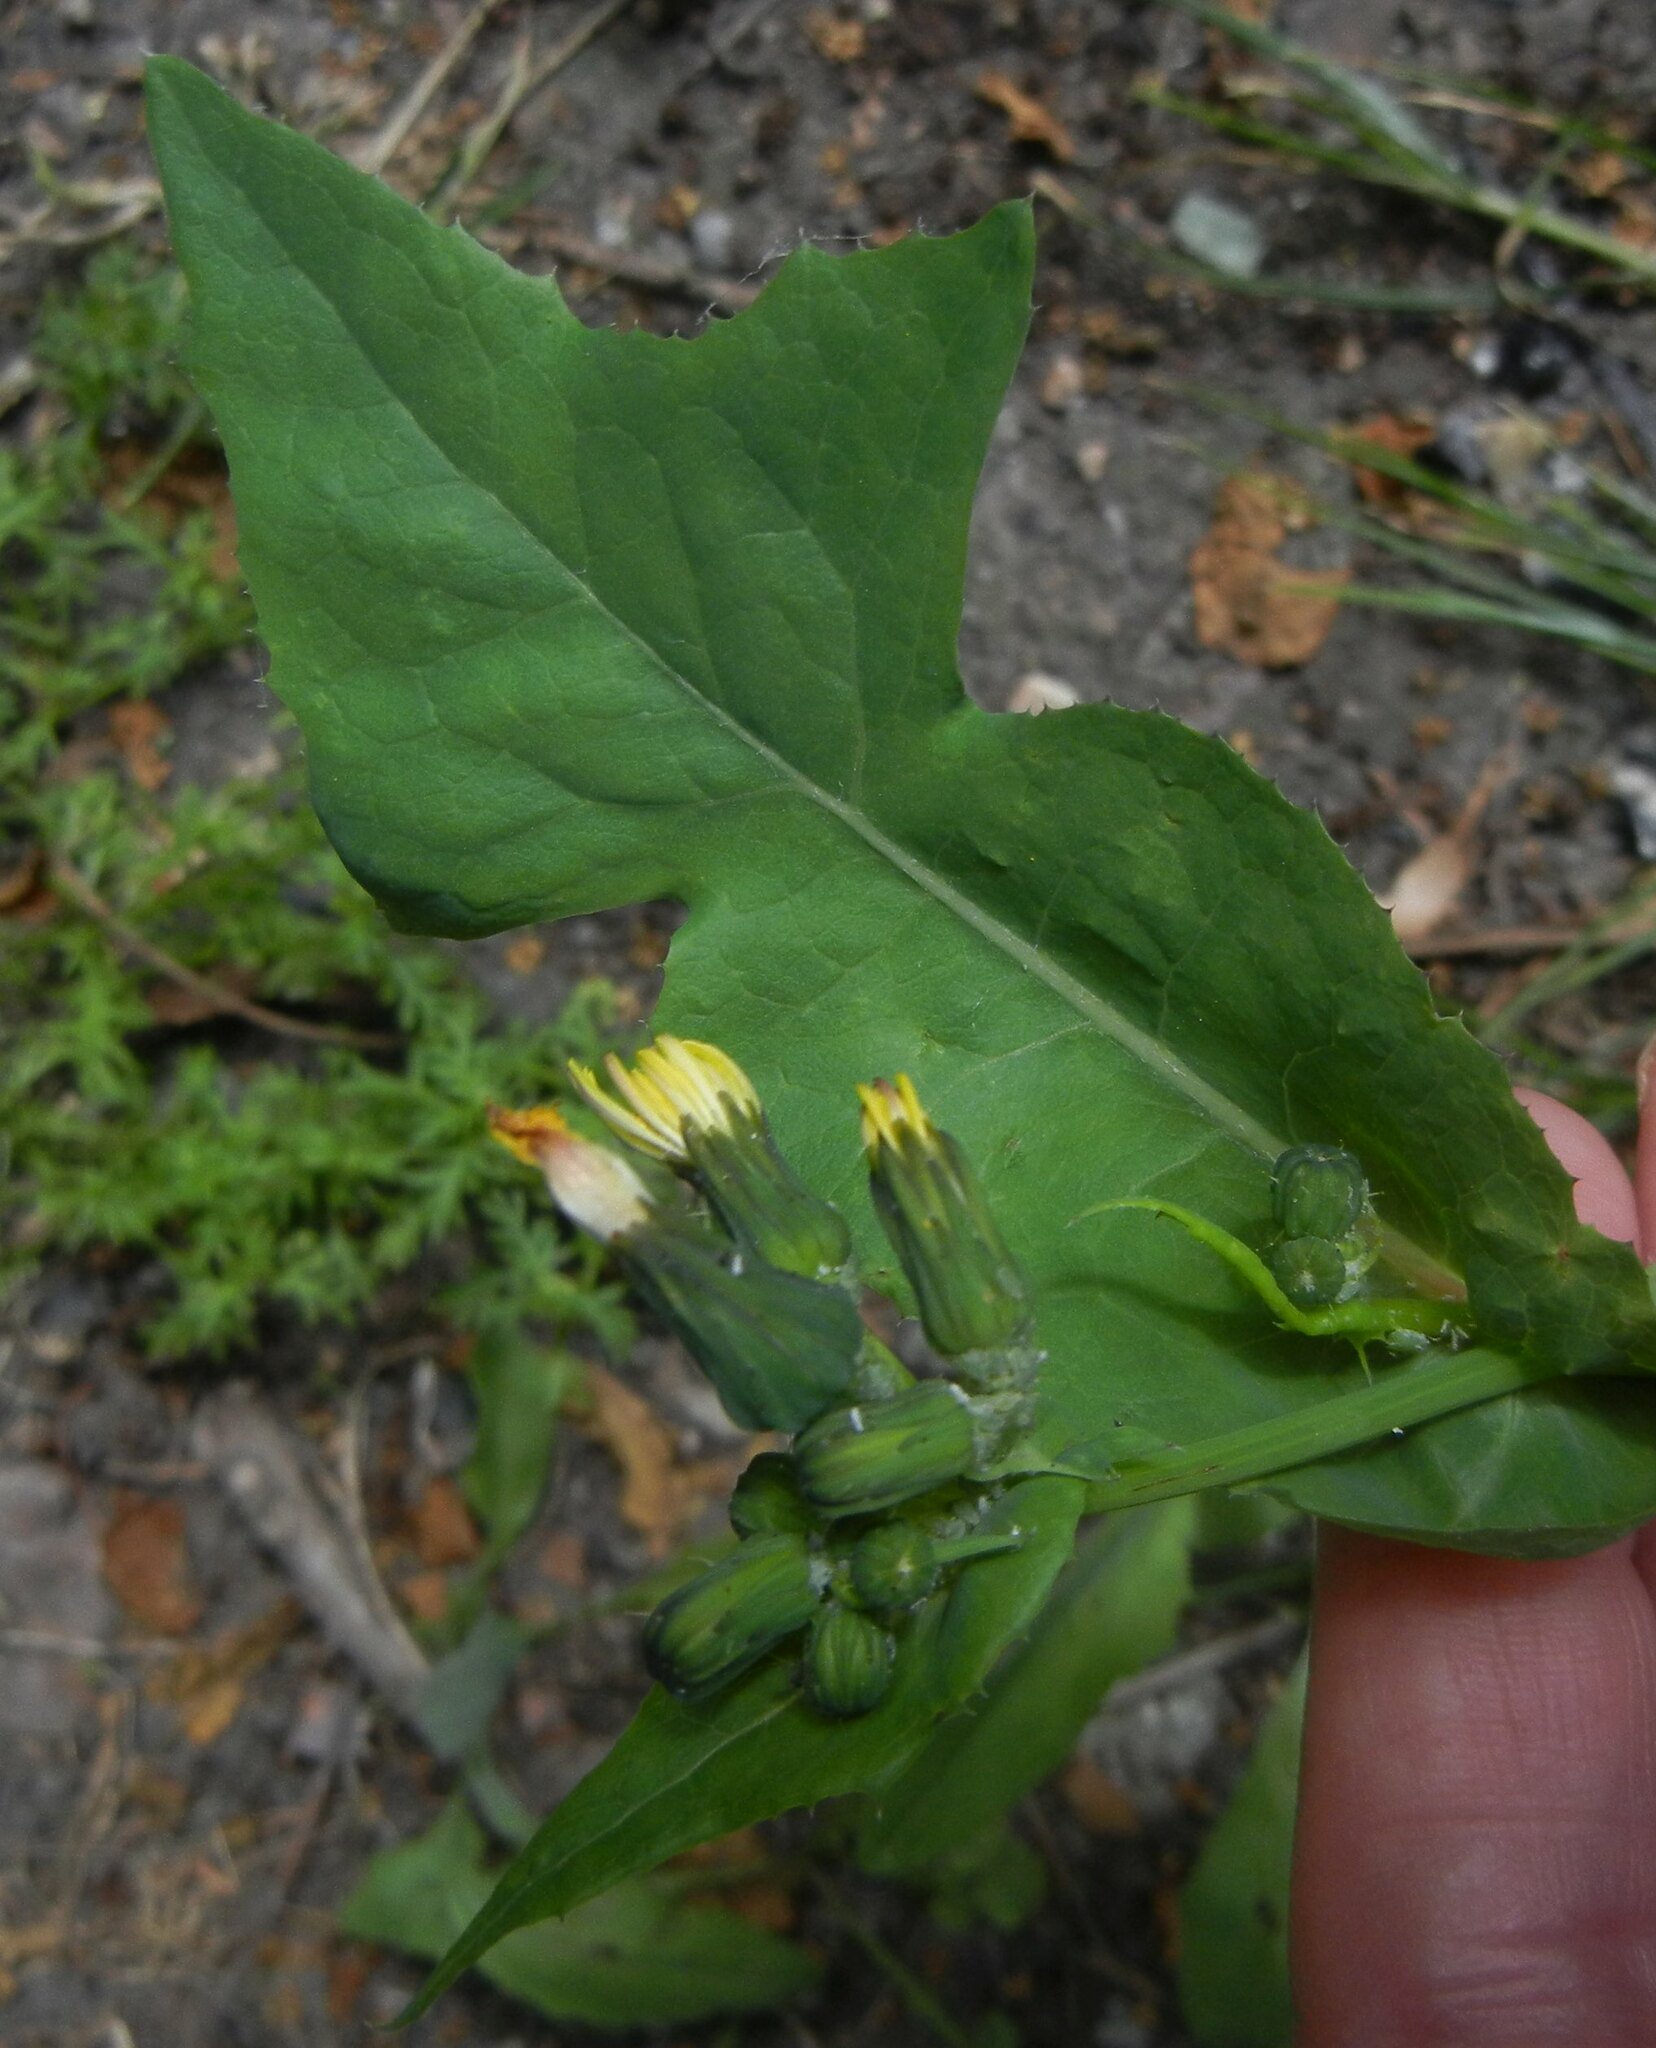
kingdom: Plantae
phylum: Tracheophyta
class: Magnoliopsida
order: Asterales
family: Asteraceae
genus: Sonchus
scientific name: Sonchus oleraceus
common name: Common sowthistle
